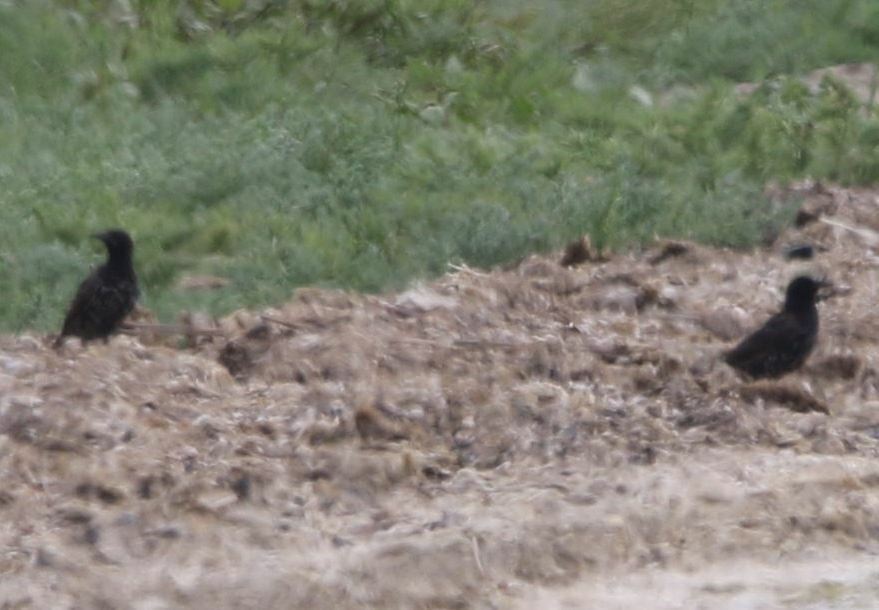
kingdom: Animalia
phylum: Chordata
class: Aves
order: Passeriformes
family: Sturnidae
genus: Sturnus
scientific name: Sturnus vulgaris
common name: Common starling
